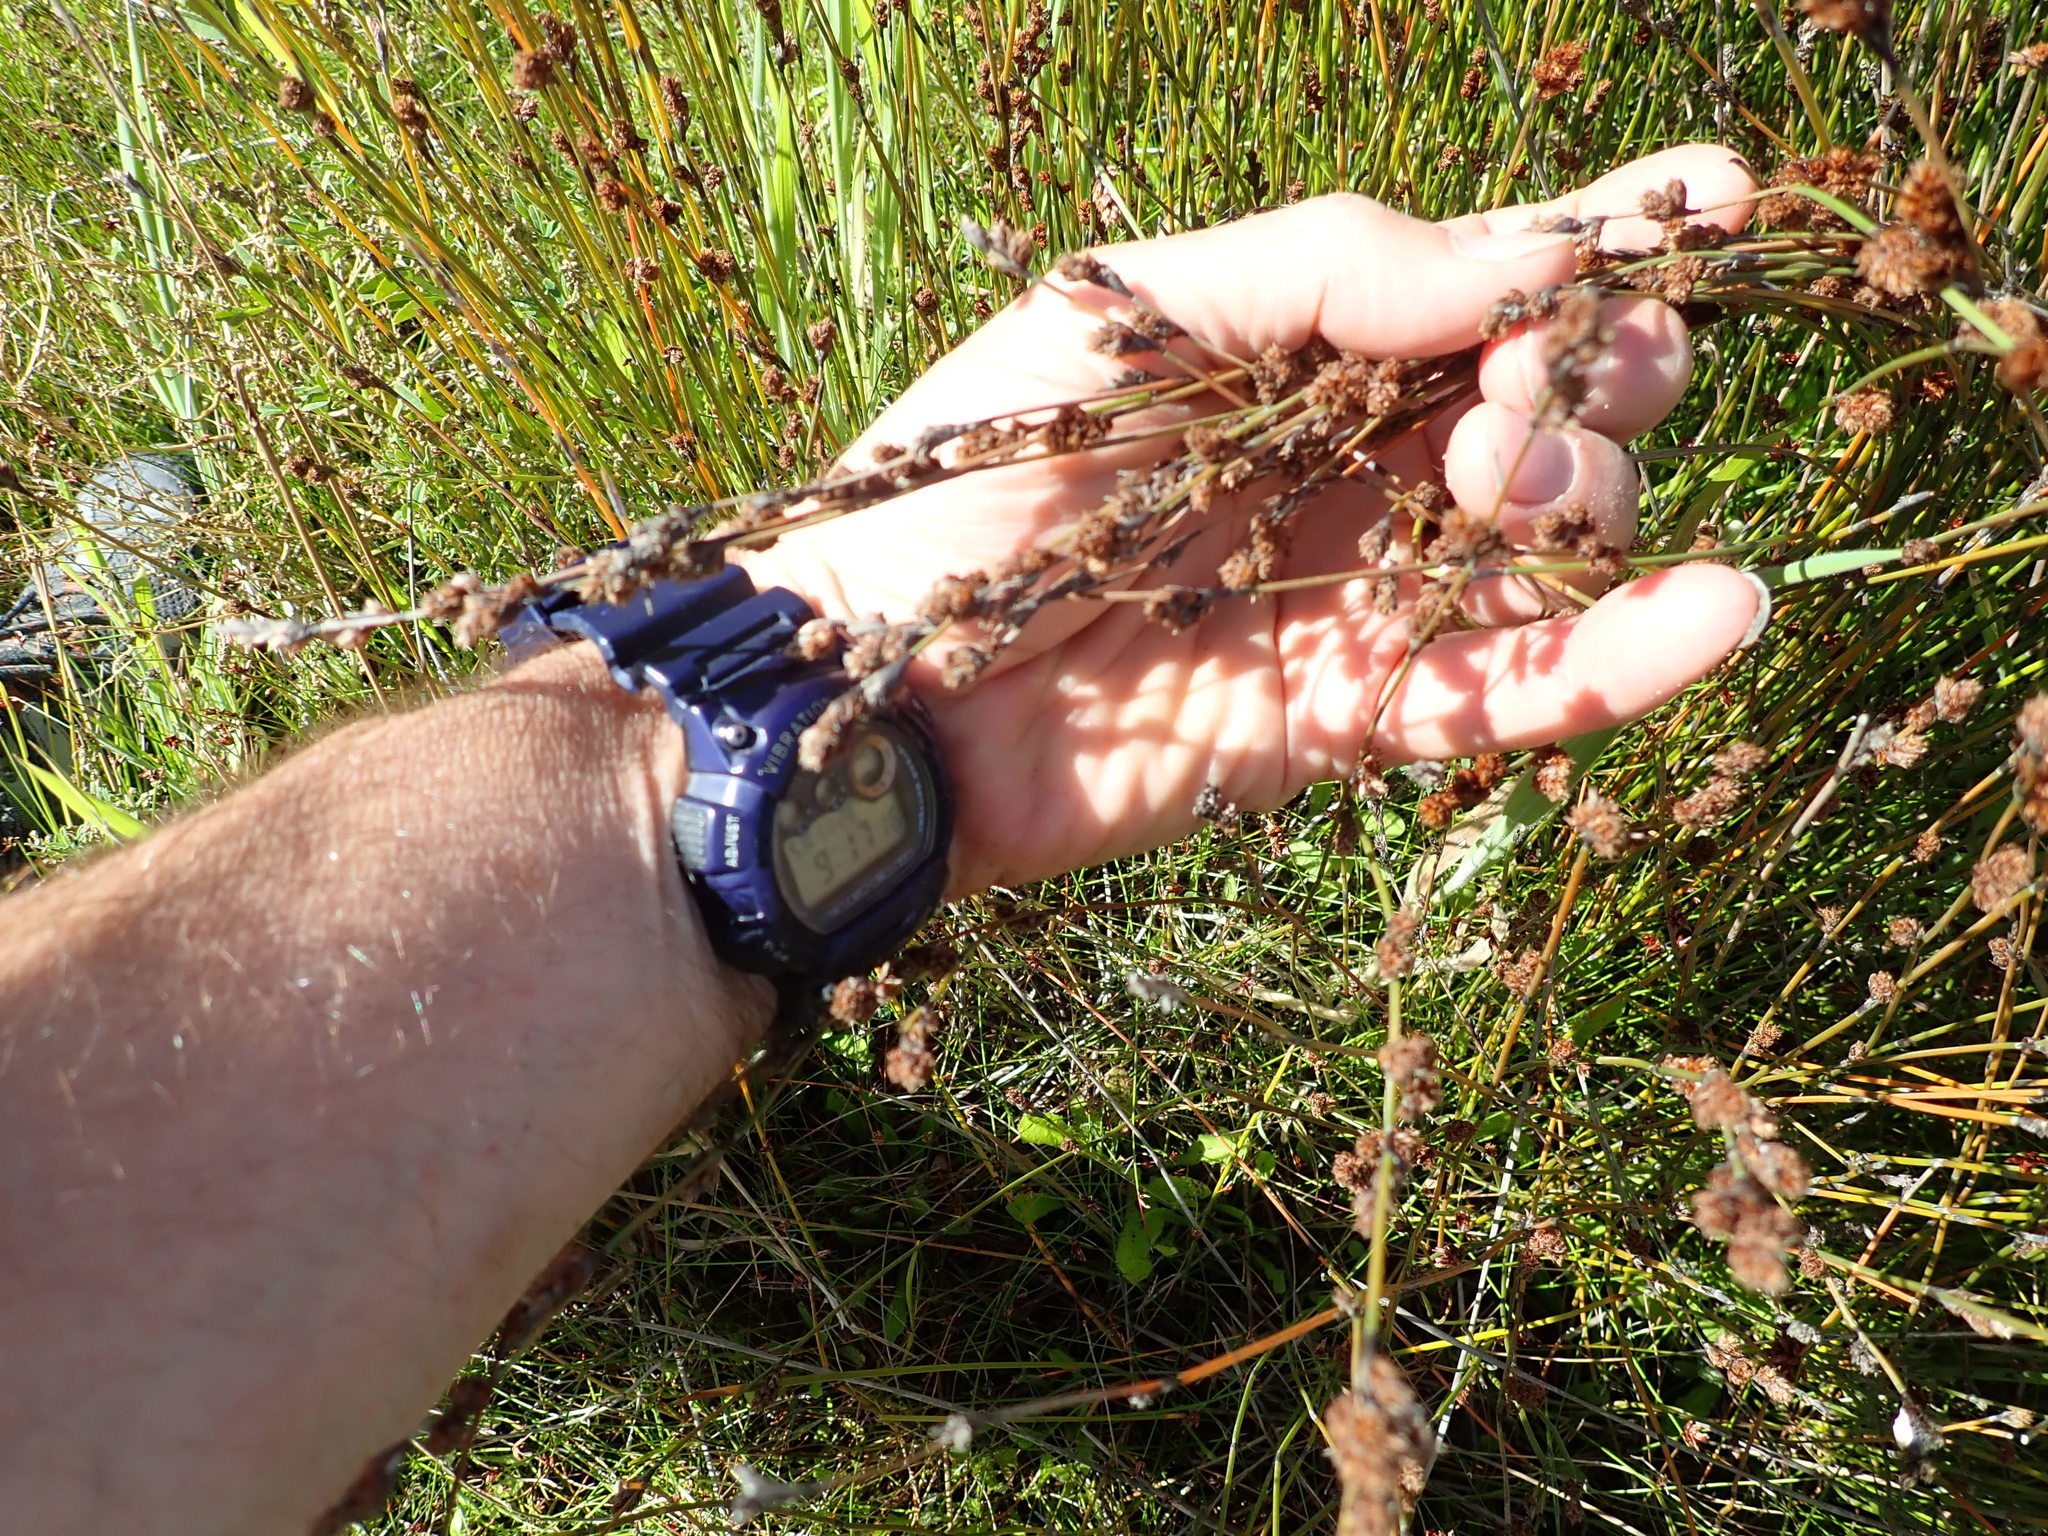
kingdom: Plantae
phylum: Tracheophyta
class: Liliopsida
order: Poales
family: Restionaceae
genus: Apodasmia
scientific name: Apodasmia similis
